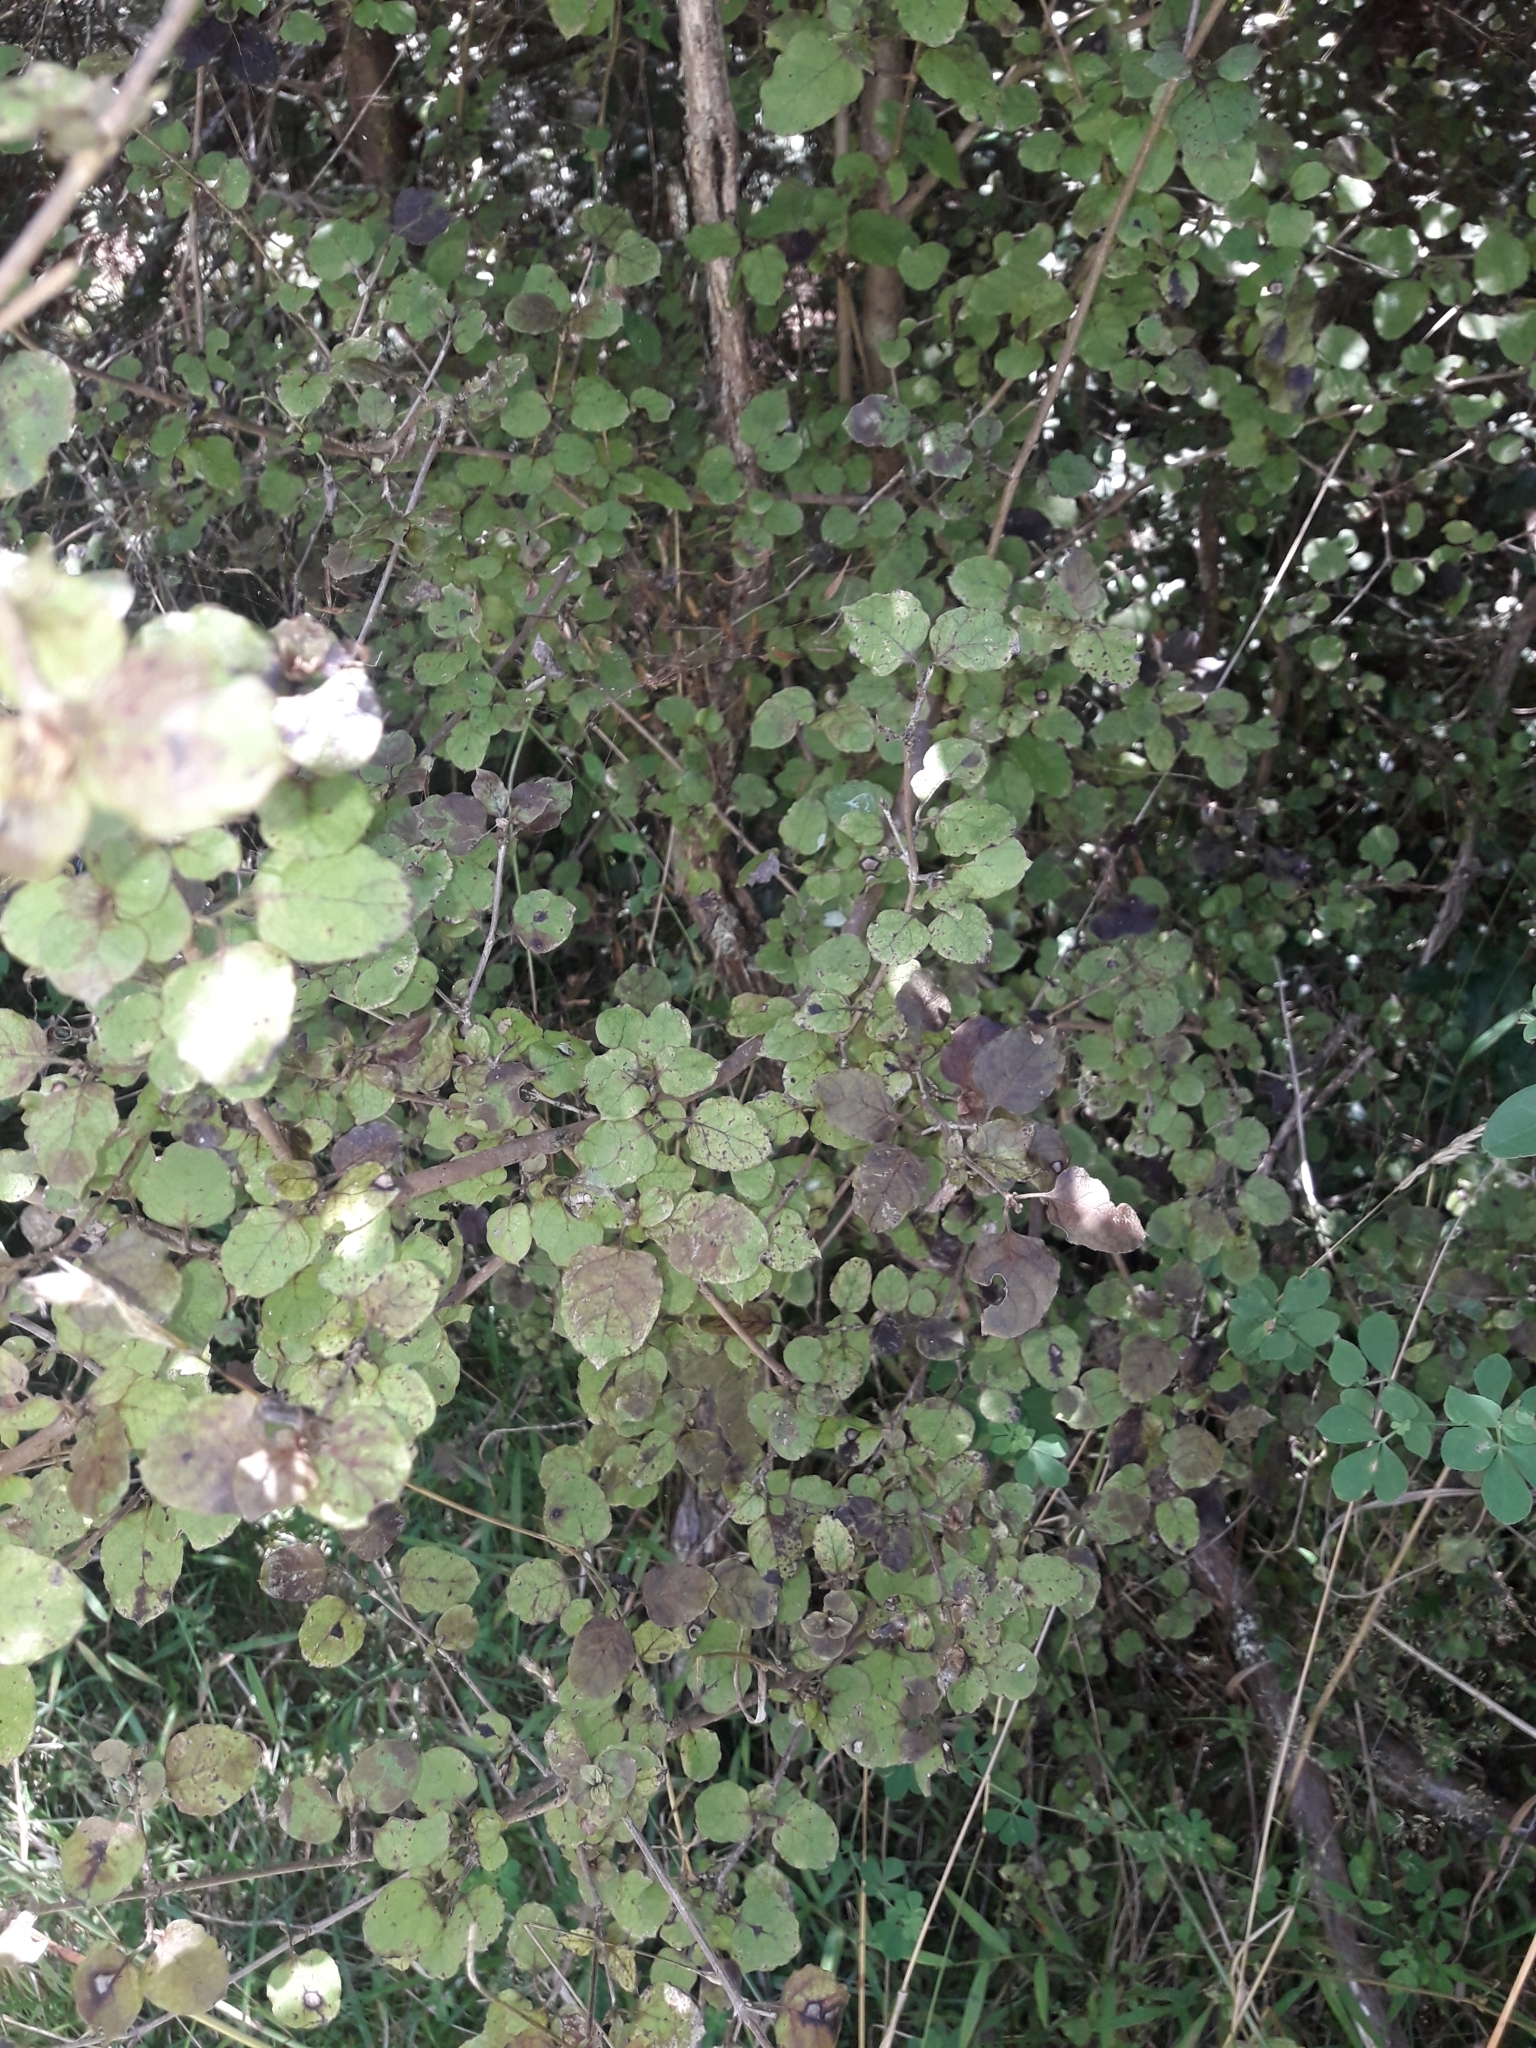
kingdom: Plantae
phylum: Tracheophyta
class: Magnoliopsida
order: Gentianales
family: Rubiaceae
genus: Coprosma
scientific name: Coprosma rotundifolia
